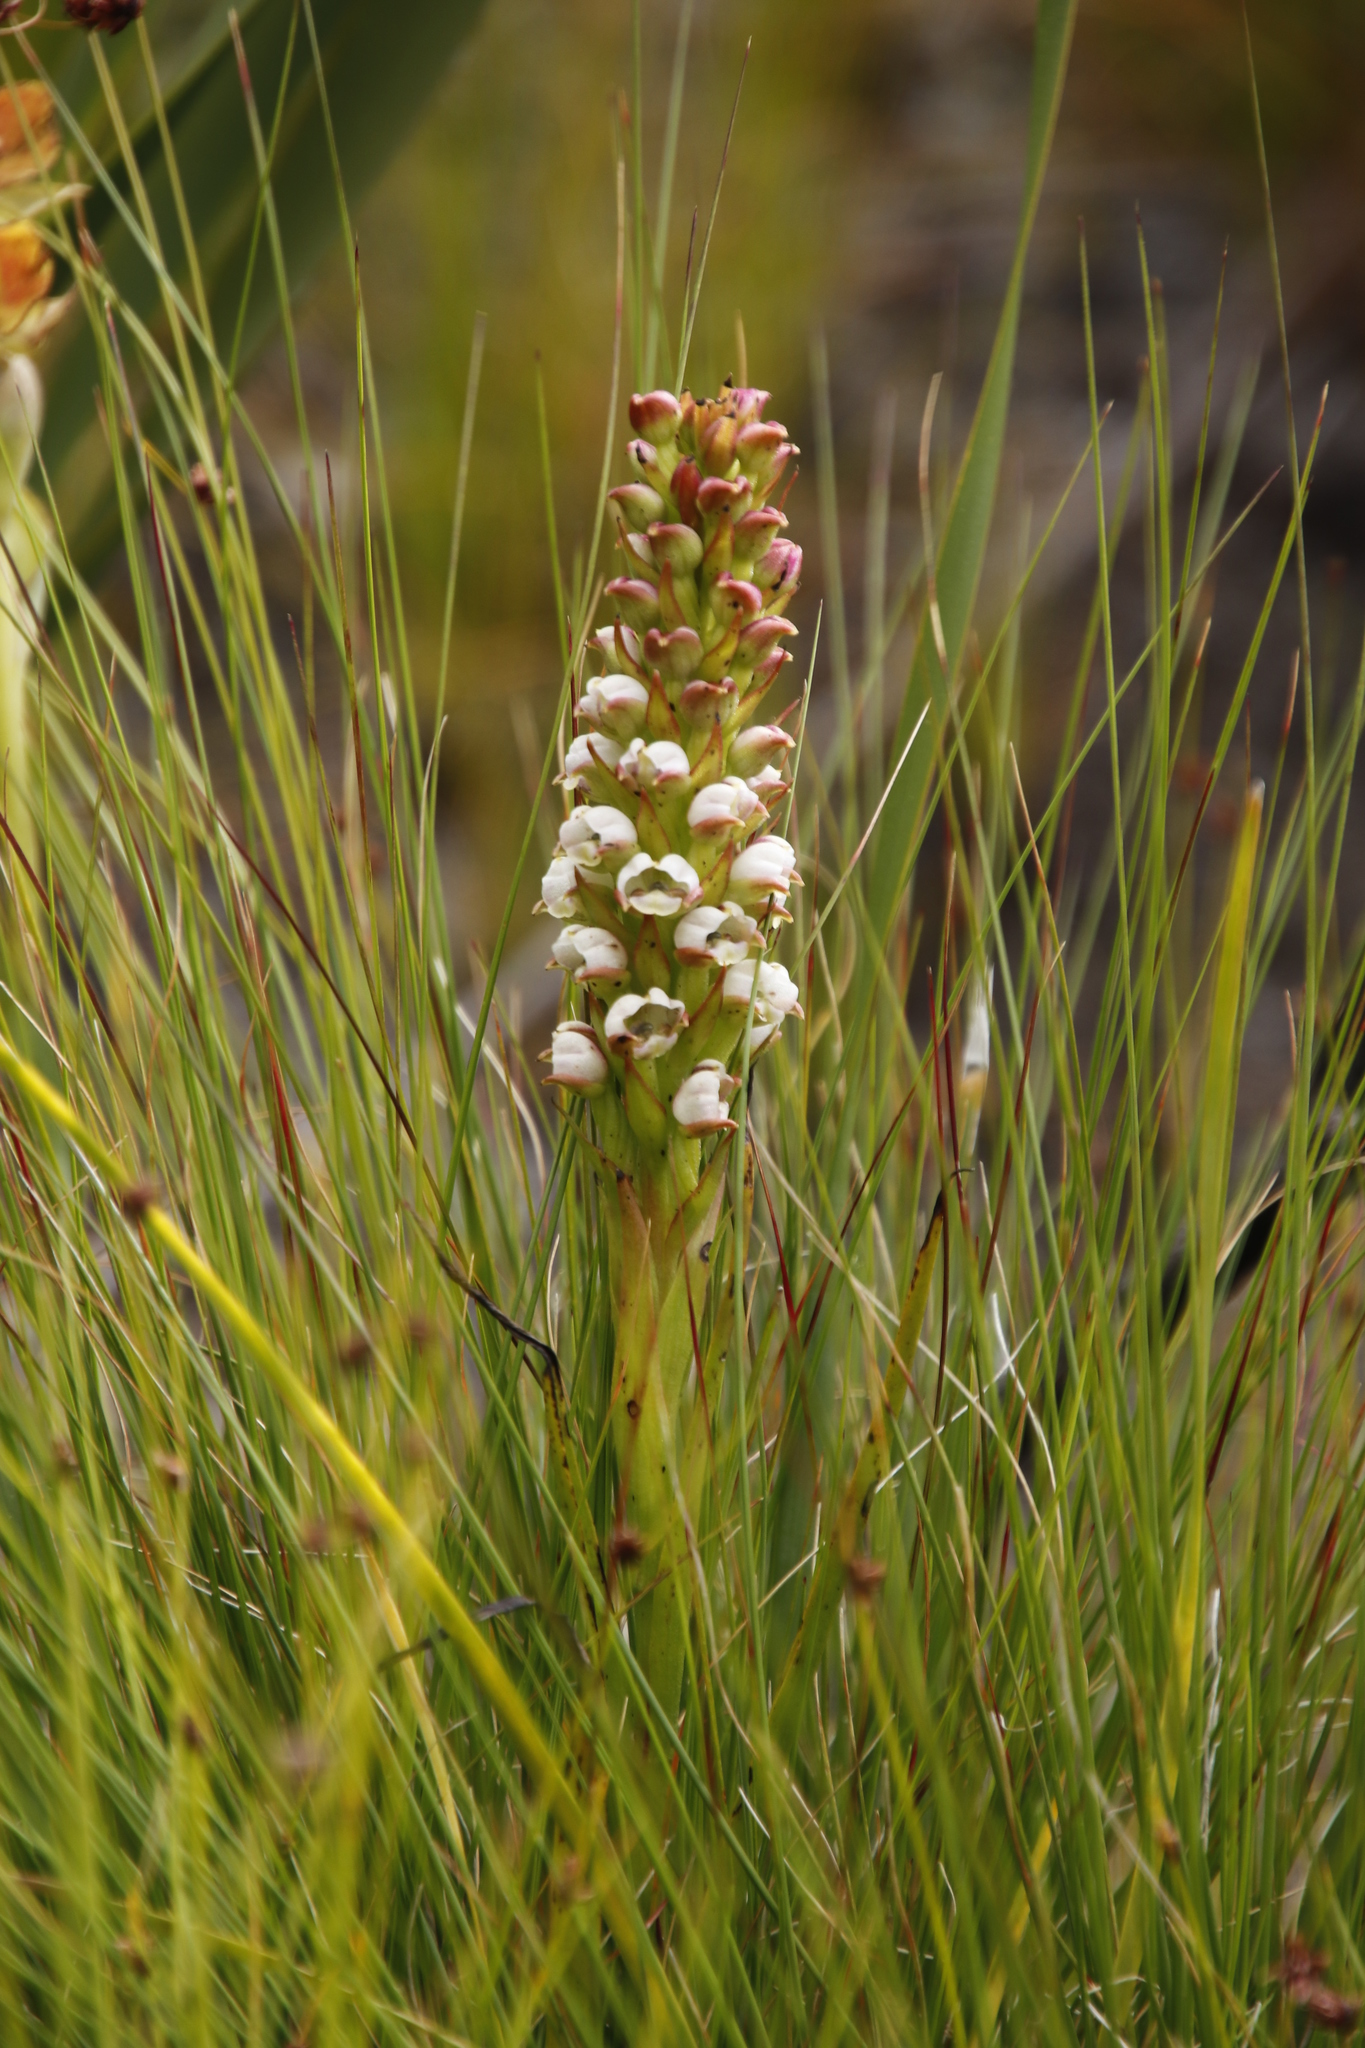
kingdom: Plantae
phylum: Tracheophyta
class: Liliopsida
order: Asparagales
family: Orchidaceae
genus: Evotella
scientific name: Evotella carnosa
